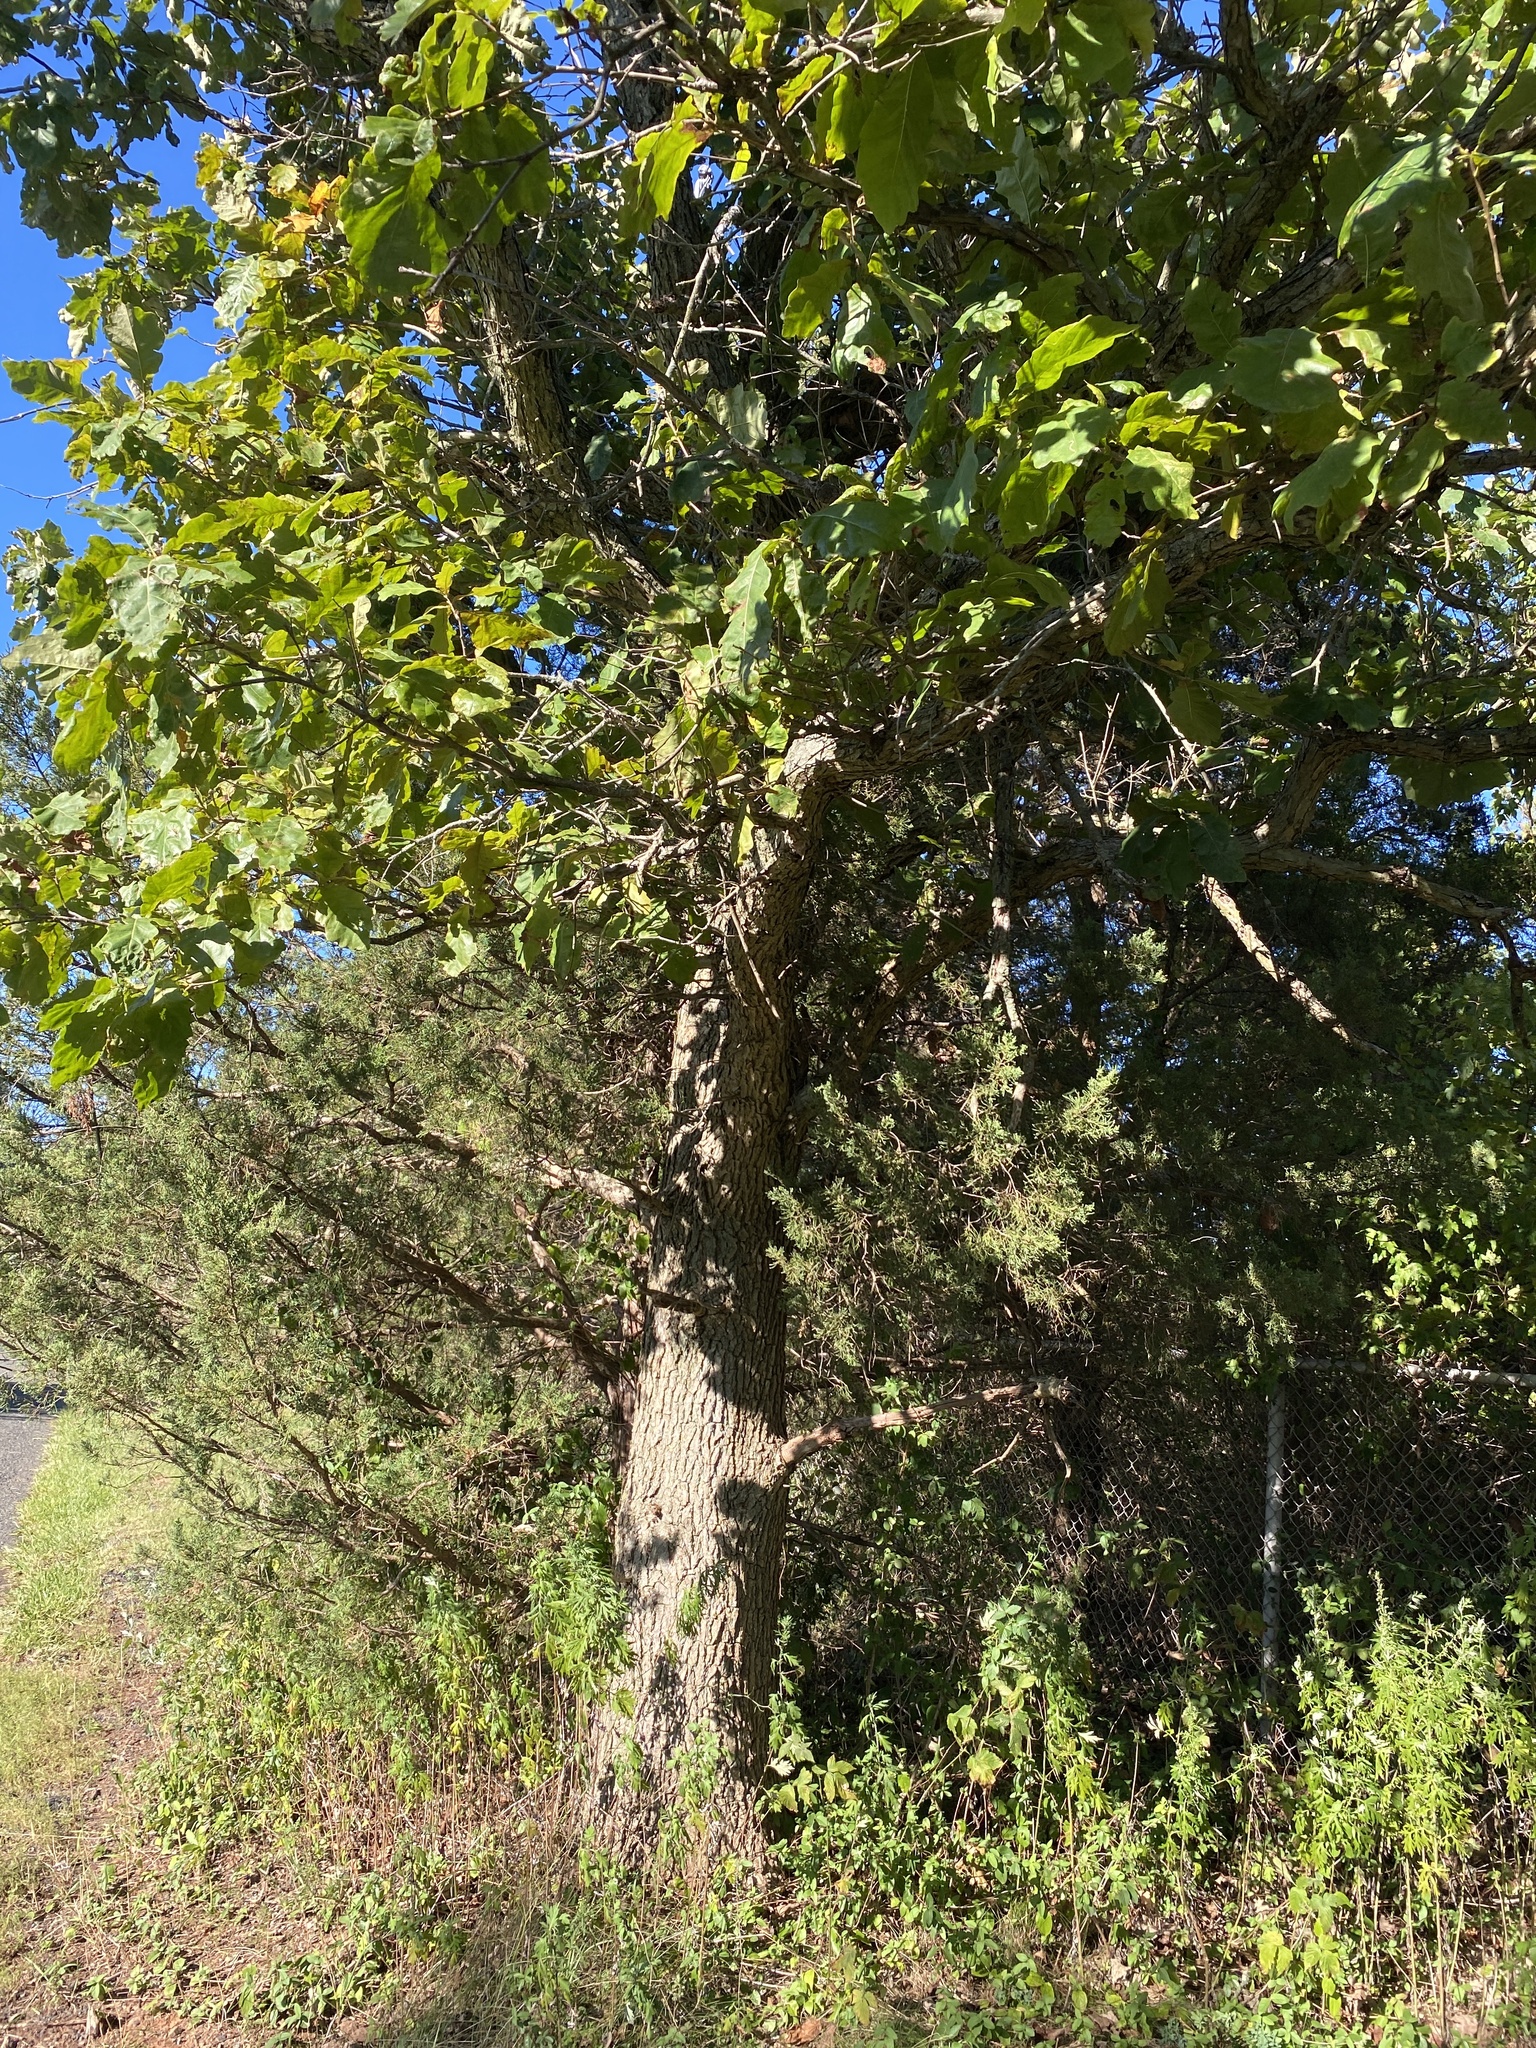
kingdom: Plantae
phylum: Tracheophyta
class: Magnoliopsida
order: Fagales
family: Fagaceae
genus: Quercus
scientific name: Quercus bicolor
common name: Swamp white oak
